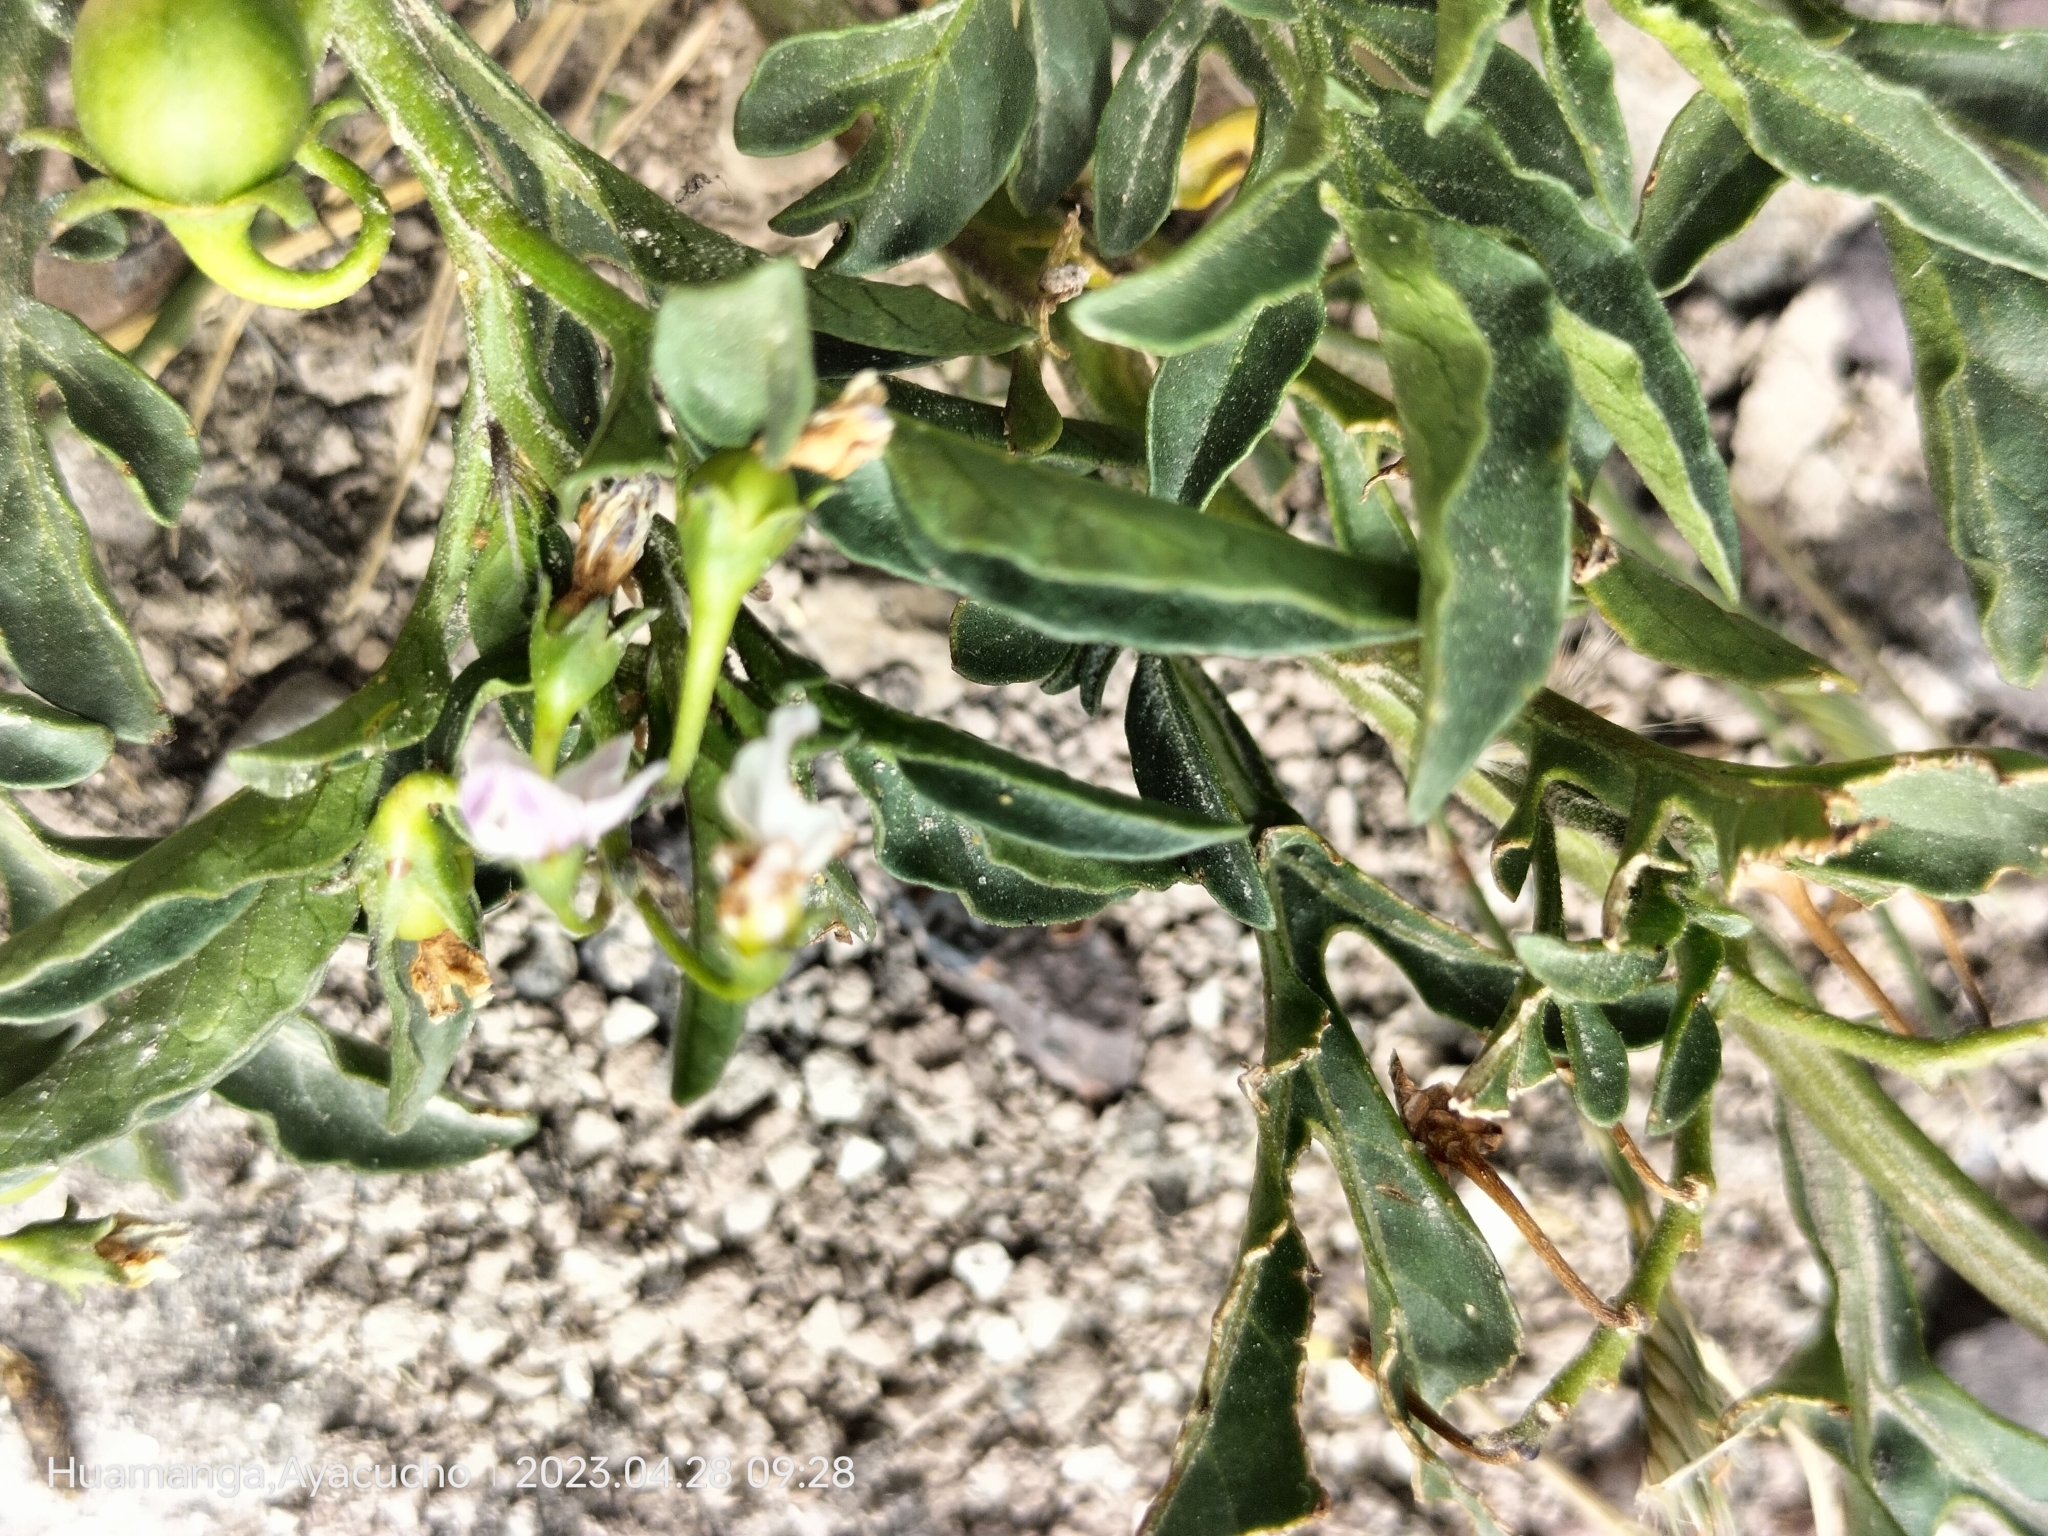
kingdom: Plantae
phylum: Tracheophyta
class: Magnoliopsida
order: Solanales
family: Solanaceae
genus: Solanum
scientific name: Solanum radicans
